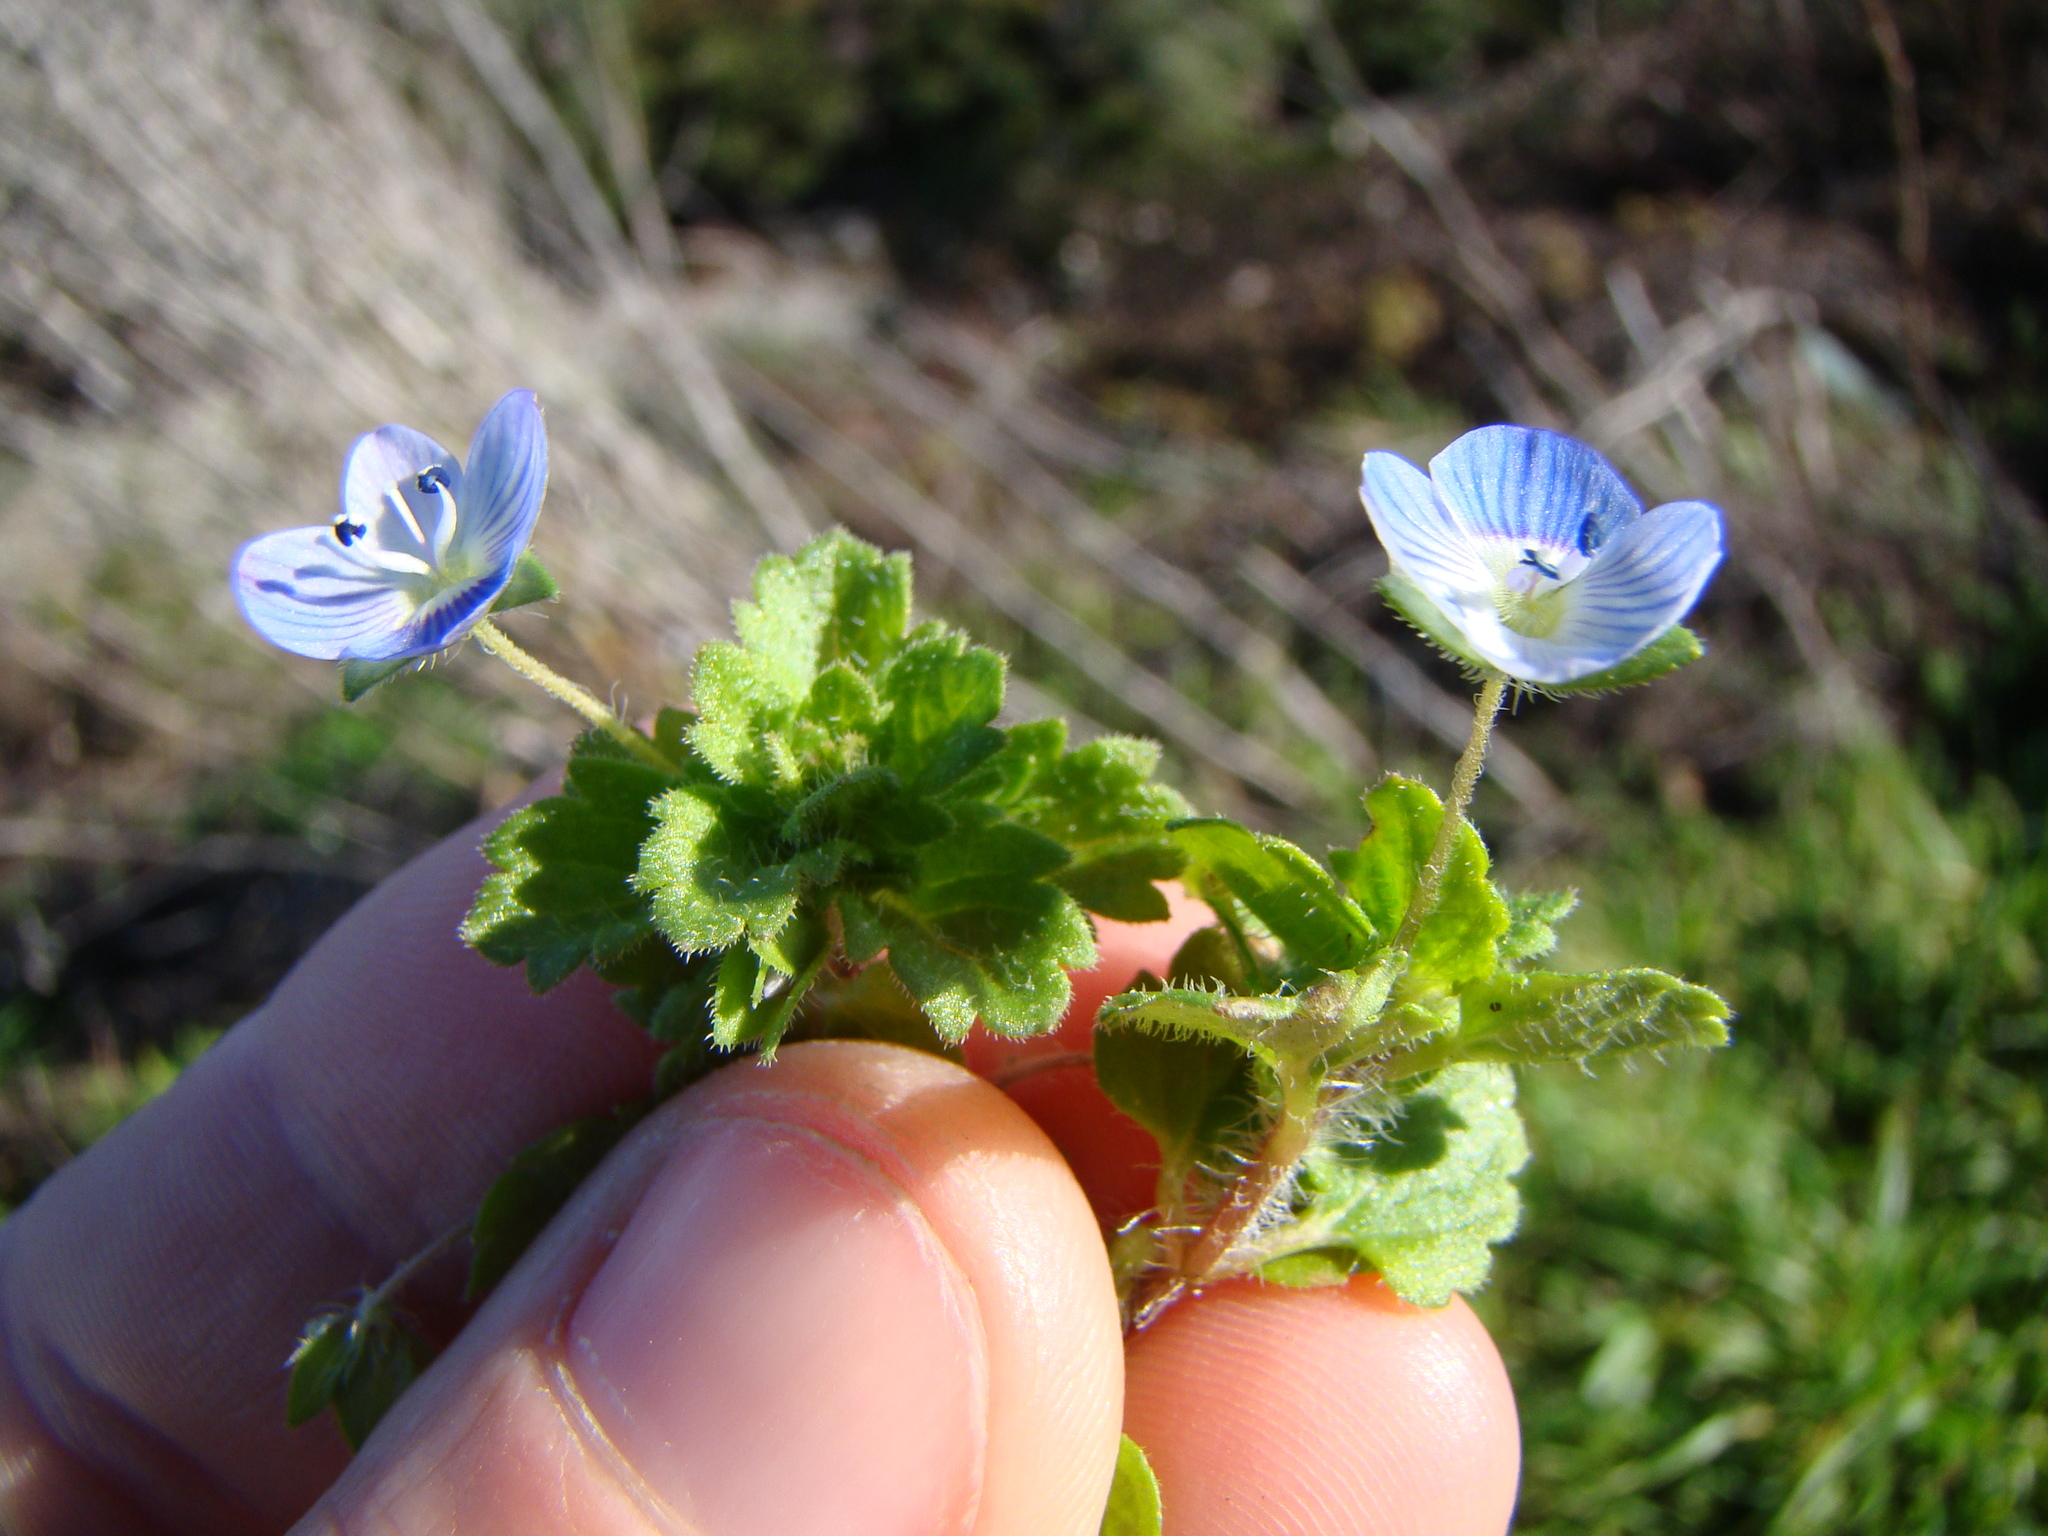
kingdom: Plantae
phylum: Tracheophyta
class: Magnoliopsida
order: Lamiales
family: Plantaginaceae
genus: Veronica
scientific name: Veronica persica
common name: Common field-speedwell
